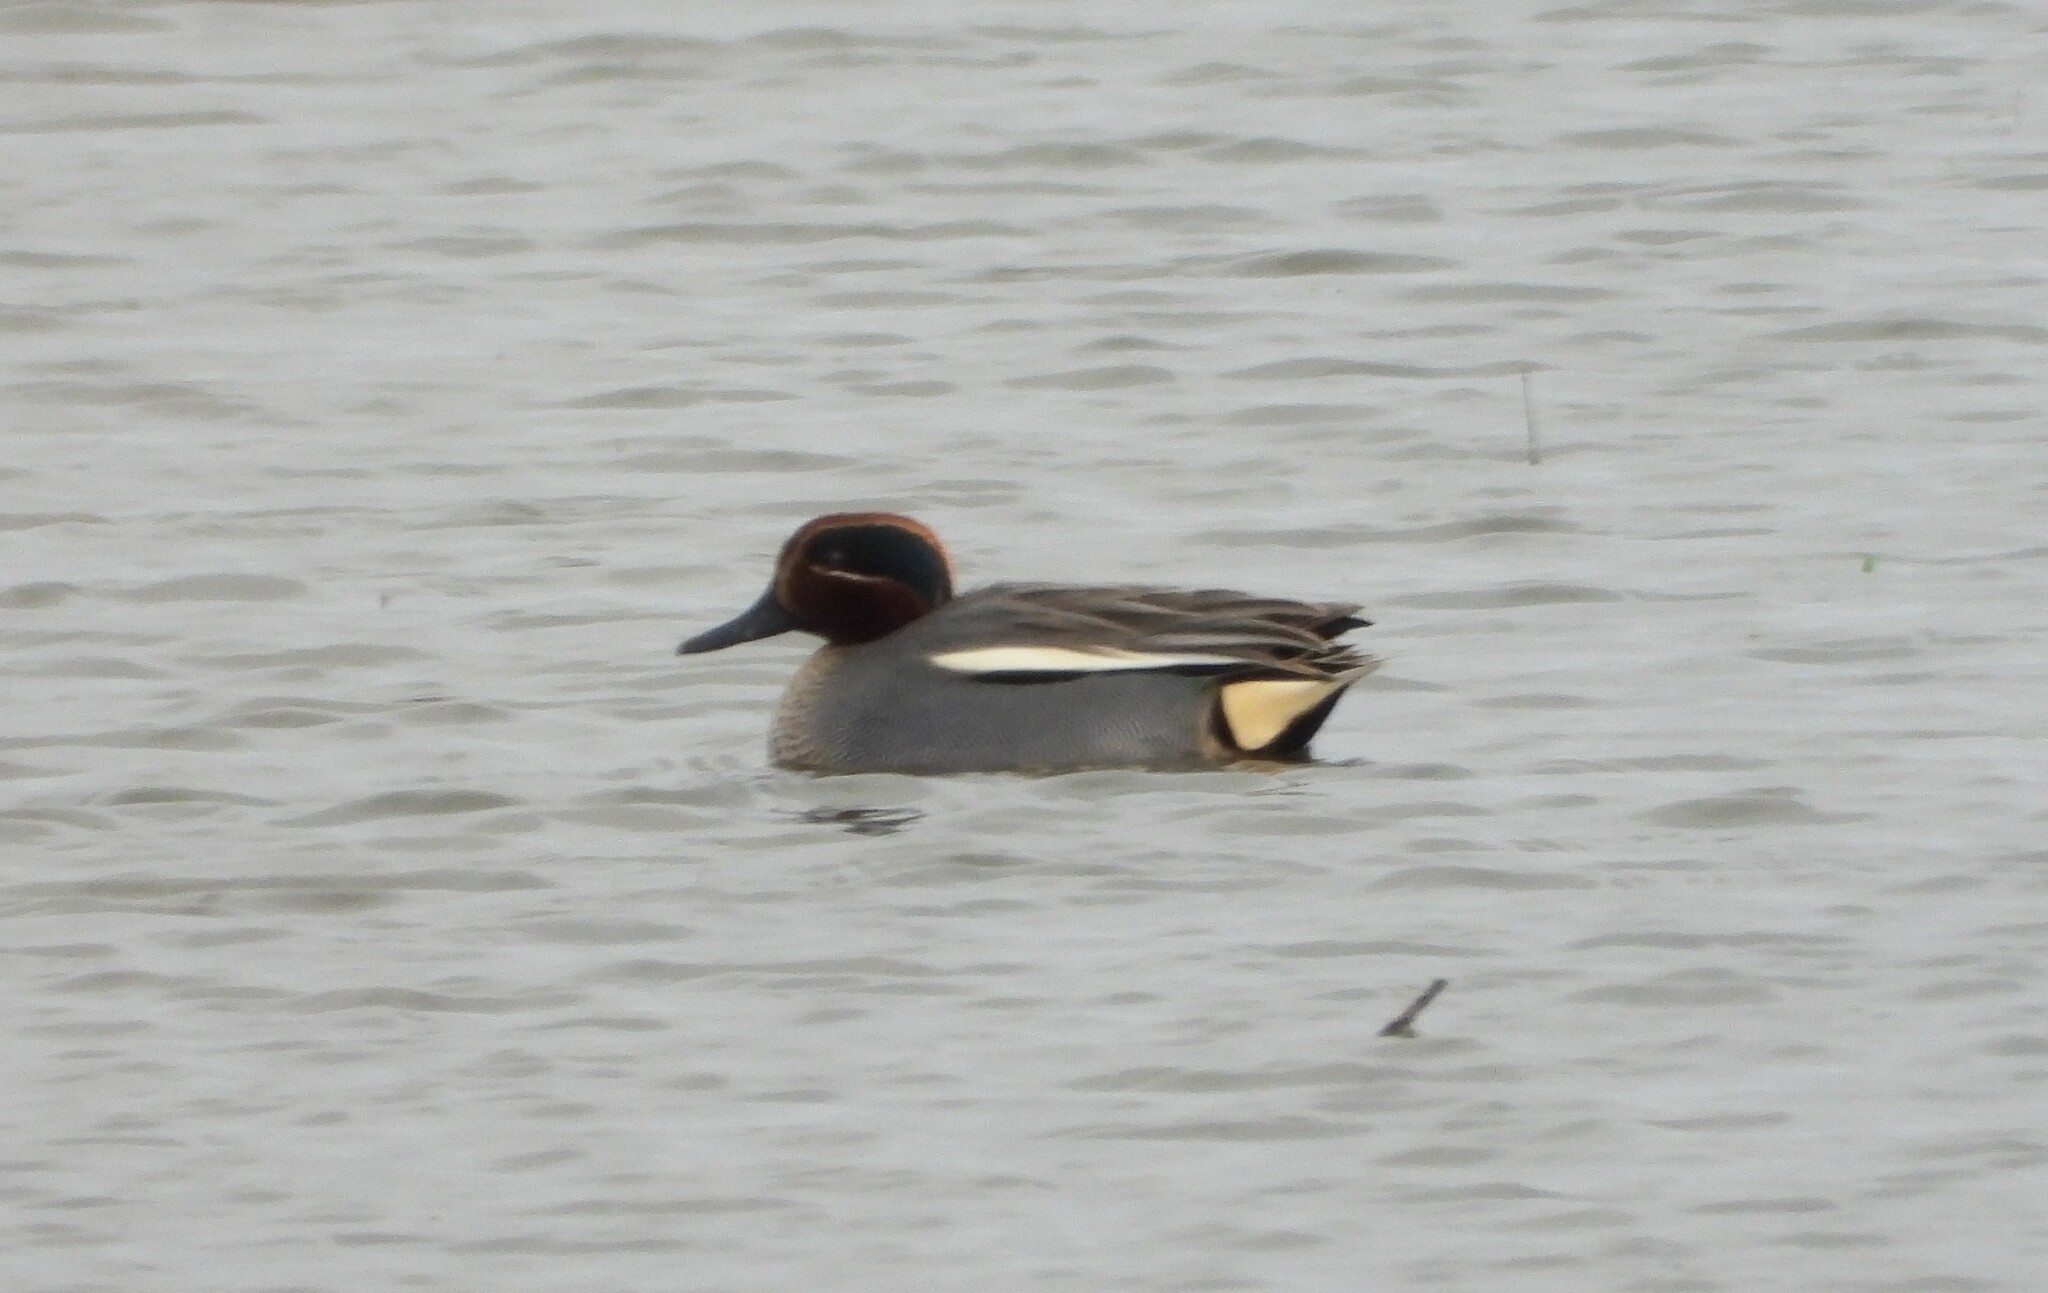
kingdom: Animalia
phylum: Chordata
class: Aves
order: Anseriformes
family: Anatidae
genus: Anas
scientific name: Anas crecca
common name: Eurasian teal
